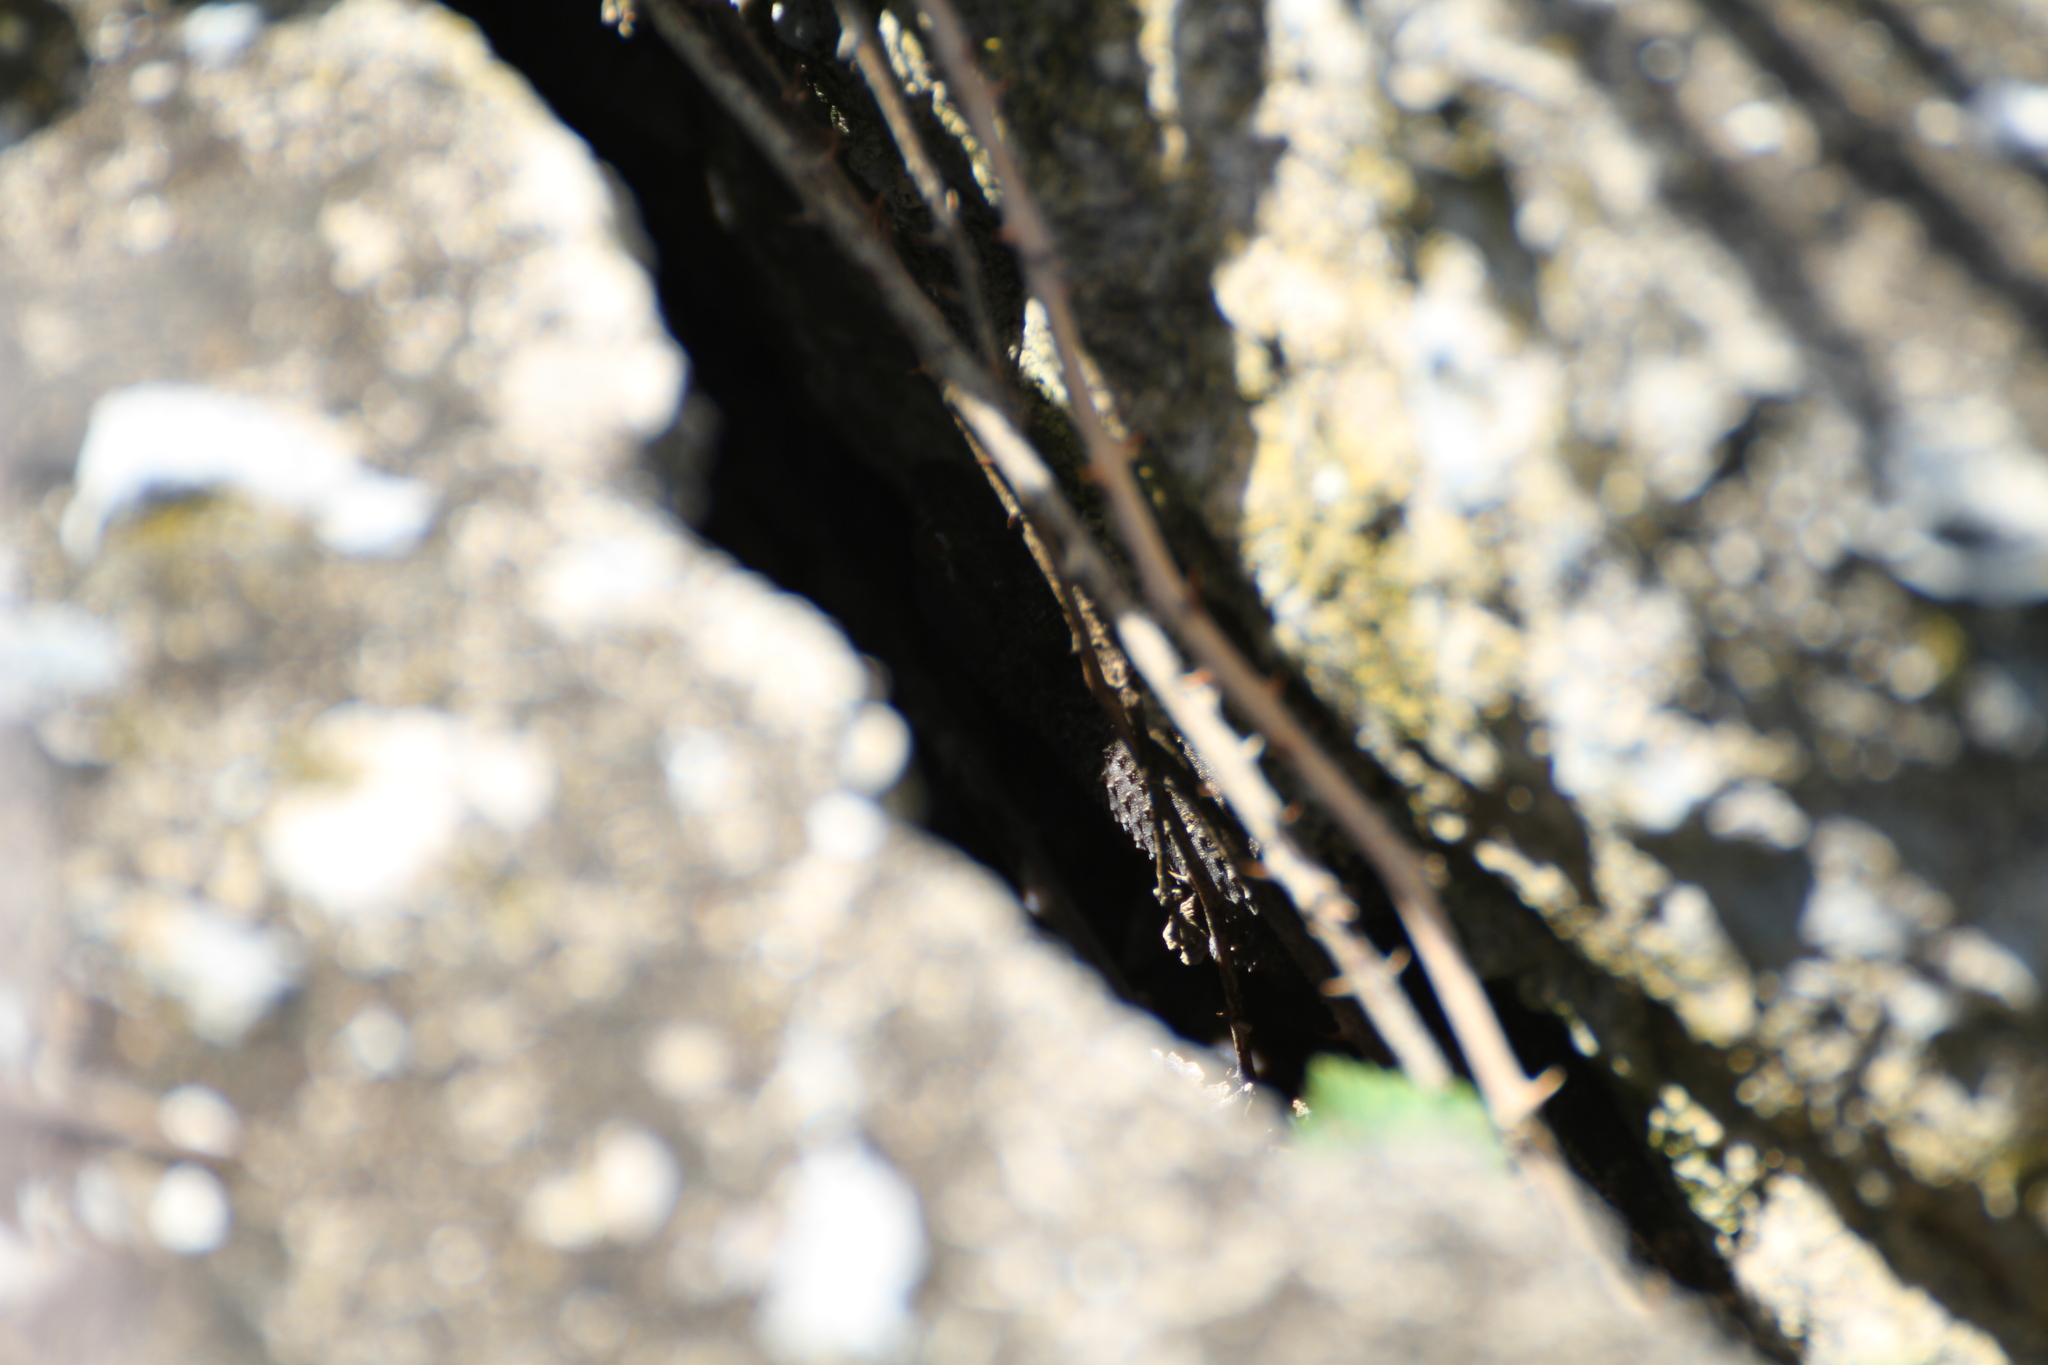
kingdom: Animalia
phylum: Chordata
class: Squamata
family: Phyllodactylidae
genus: Tarentola
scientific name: Tarentola mauritanica
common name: Moorish gecko
